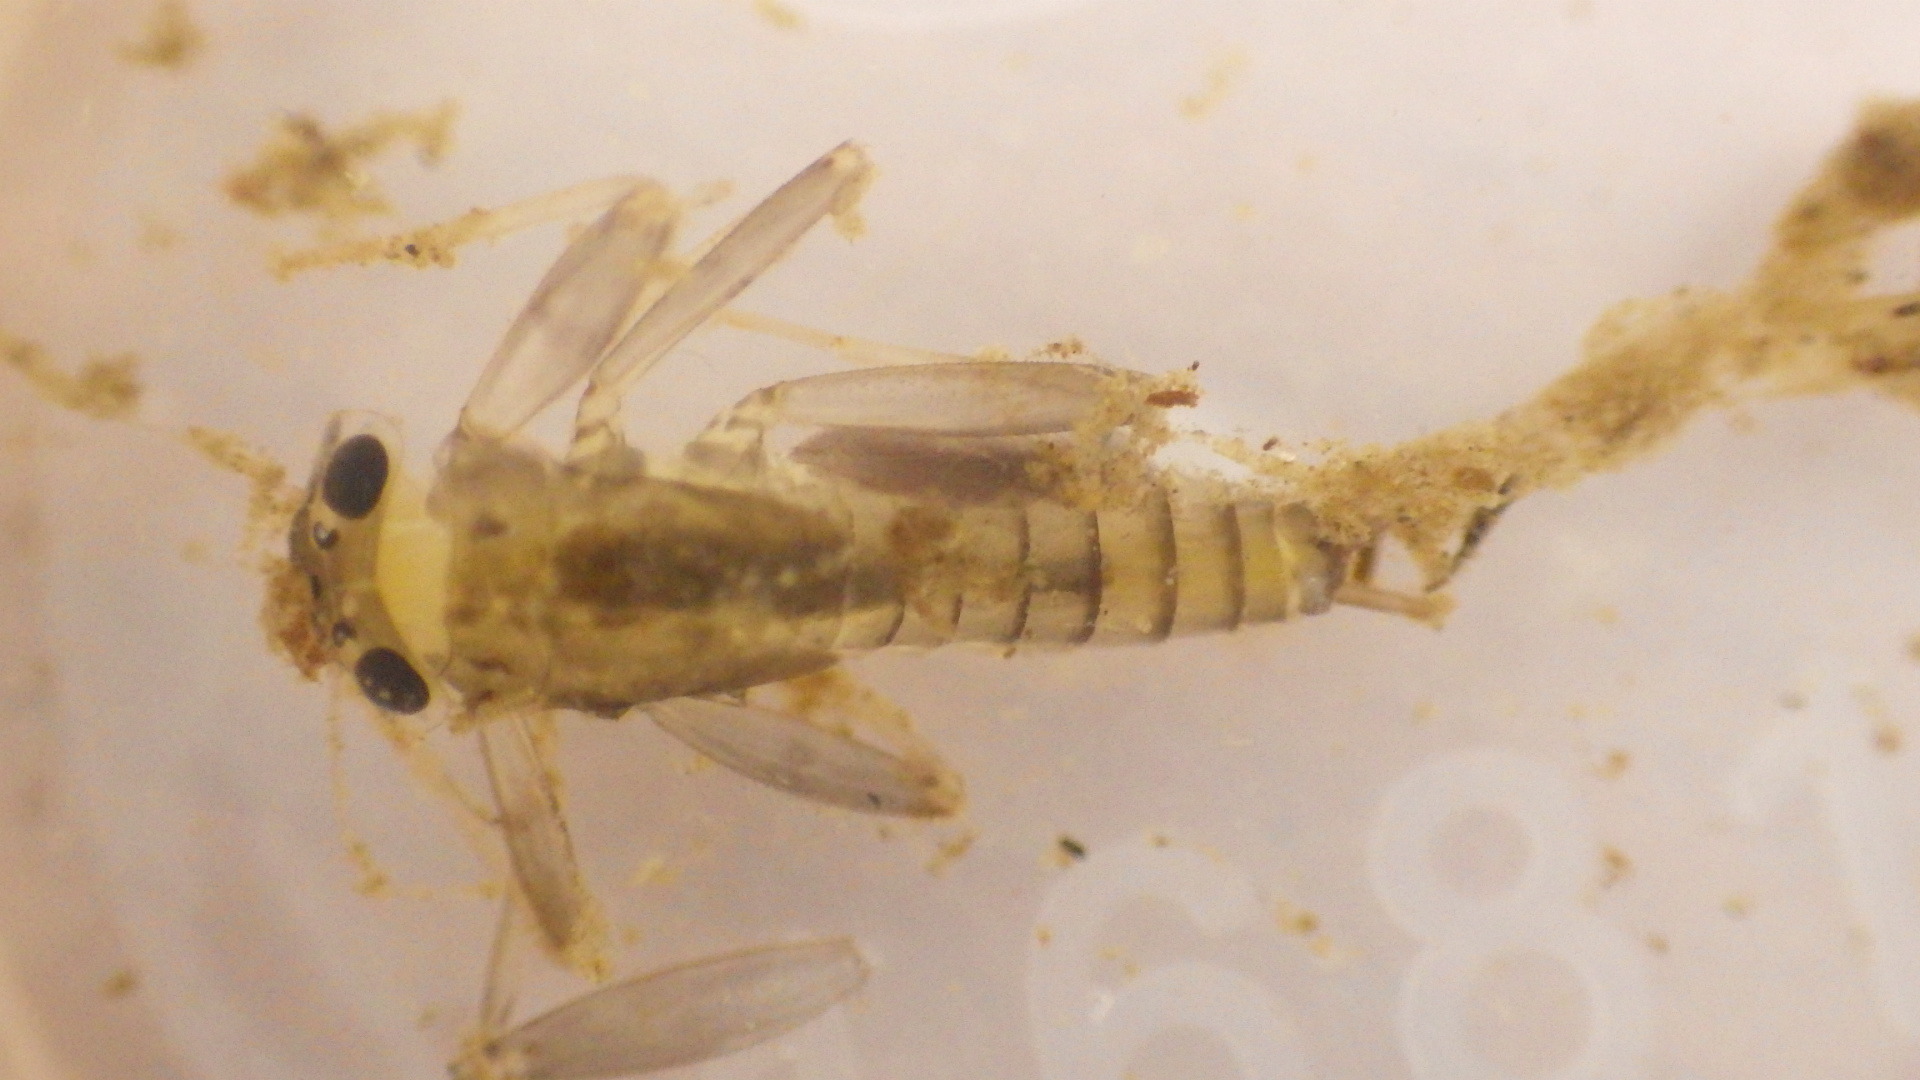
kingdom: Animalia
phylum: Arthropoda
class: Insecta
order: Ephemeroptera
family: Heptageniidae
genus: Stenacron
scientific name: Stenacron carolina
